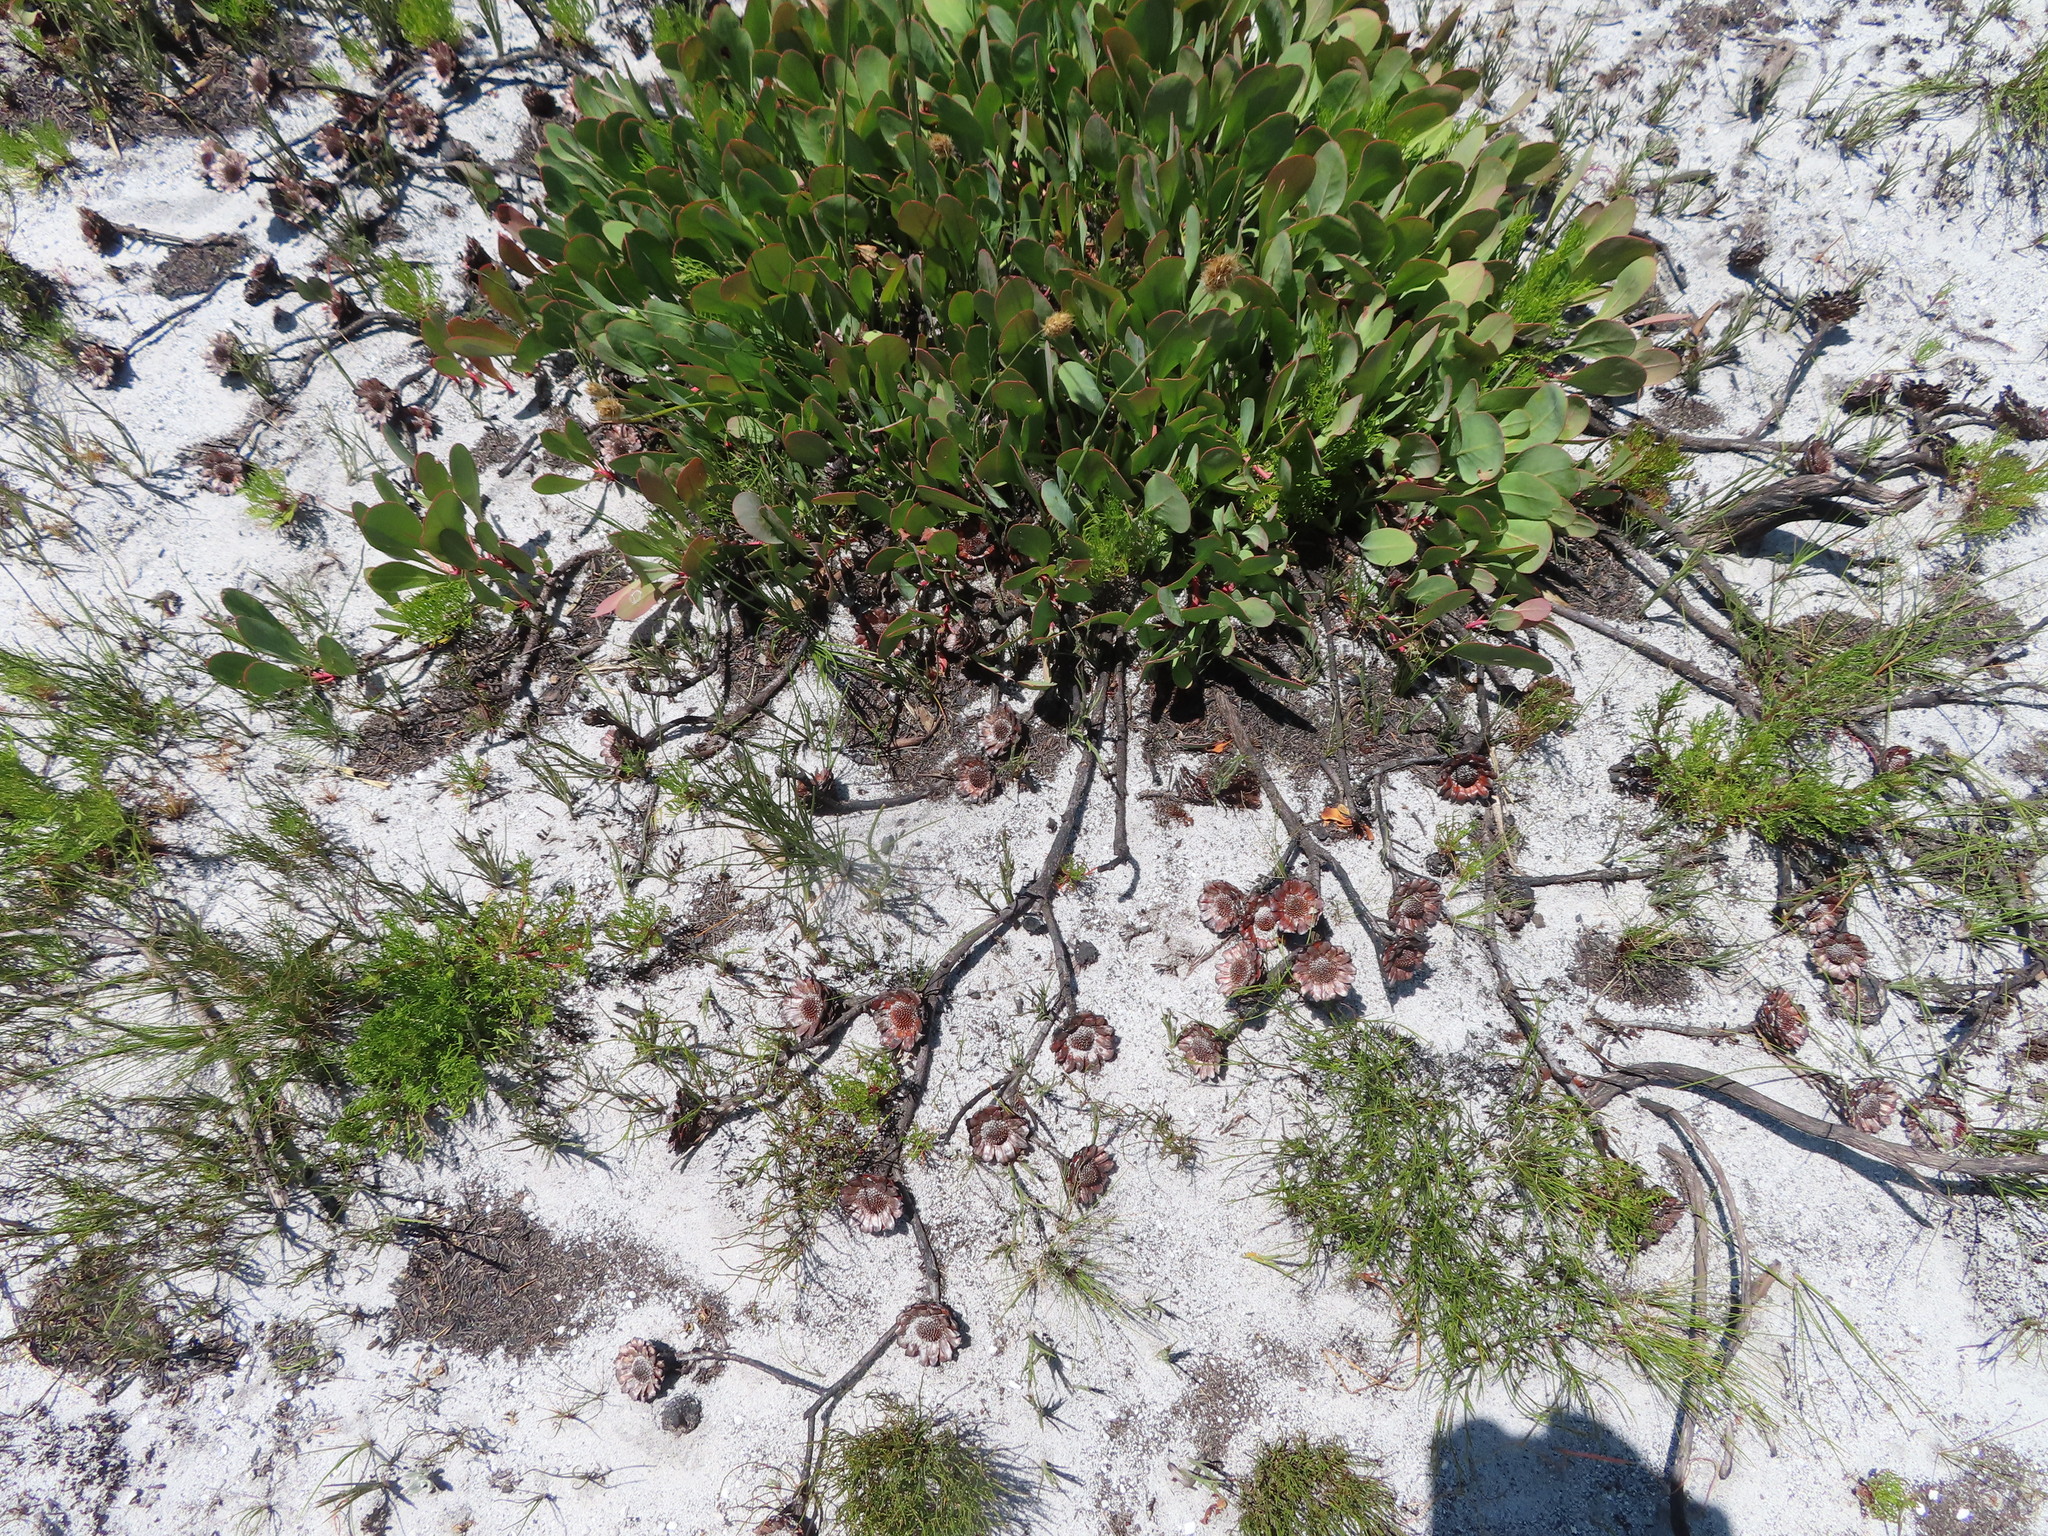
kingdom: Plantae
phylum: Tracheophyta
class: Magnoliopsida
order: Proteales
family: Proteaceae
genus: Protea
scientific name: Protea acaulos
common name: Common ground sugarbush
